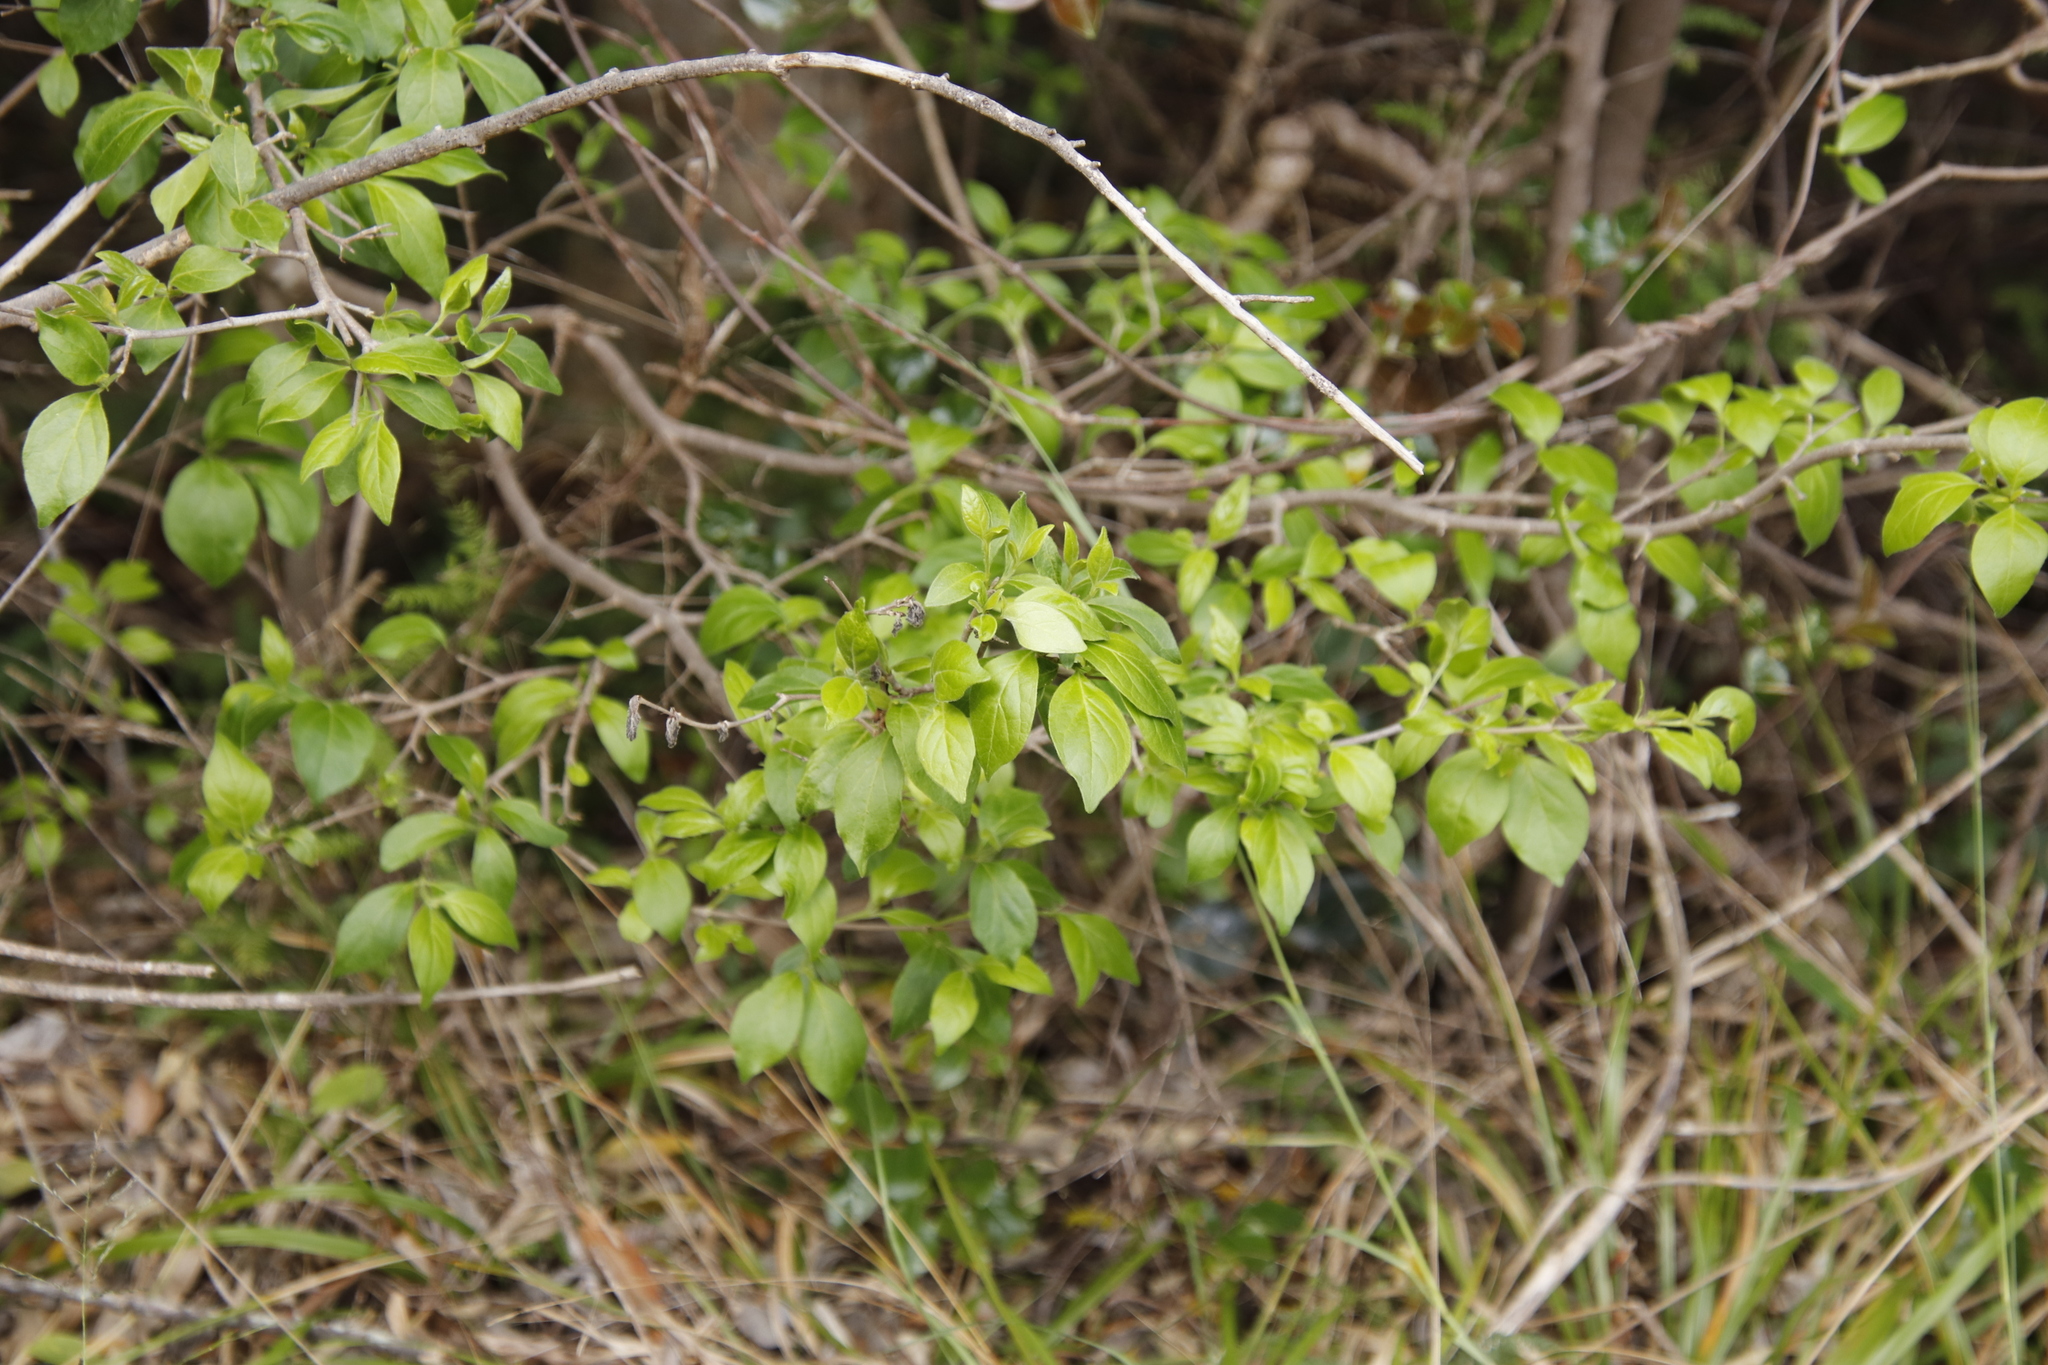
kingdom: Plantae
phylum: Tracheophyta
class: Magnoliopsida
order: Gentianales
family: Rubiaceae
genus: Afrocanthium
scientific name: Afrocanthium mundianum
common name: Rock-alder
